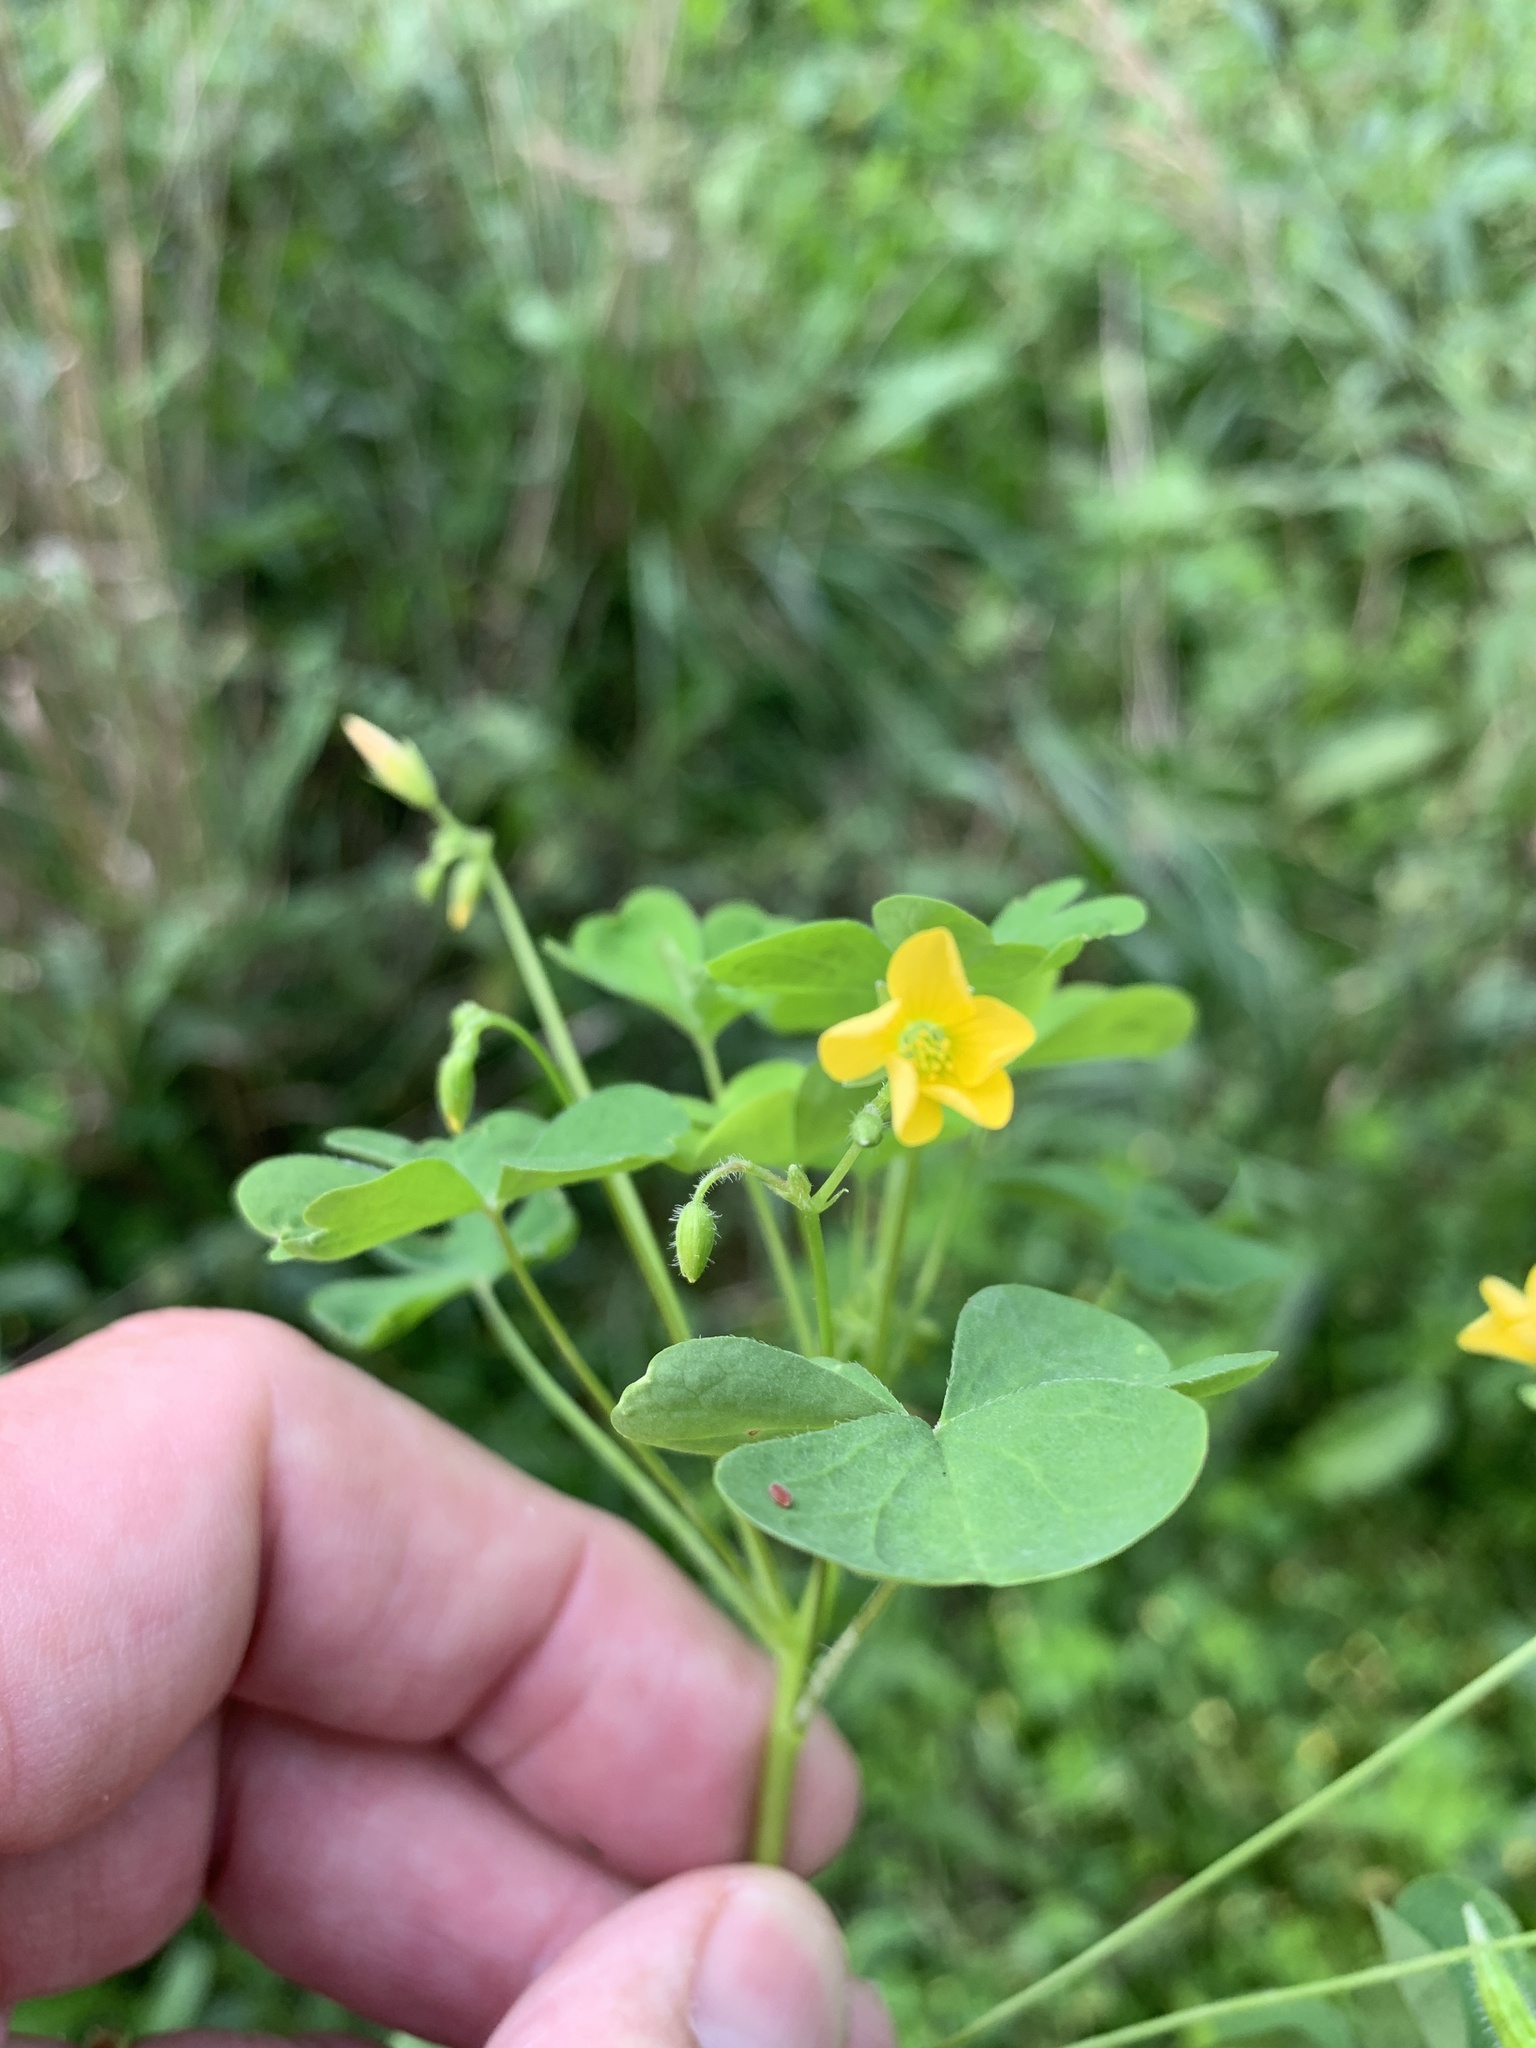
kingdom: Plantae
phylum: Tracheophyta
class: Magnoliopsida
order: Oxalidales
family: Oxalidaceae
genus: Oxalis
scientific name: Oxalis stricta
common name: Upright yellow-sorrel
